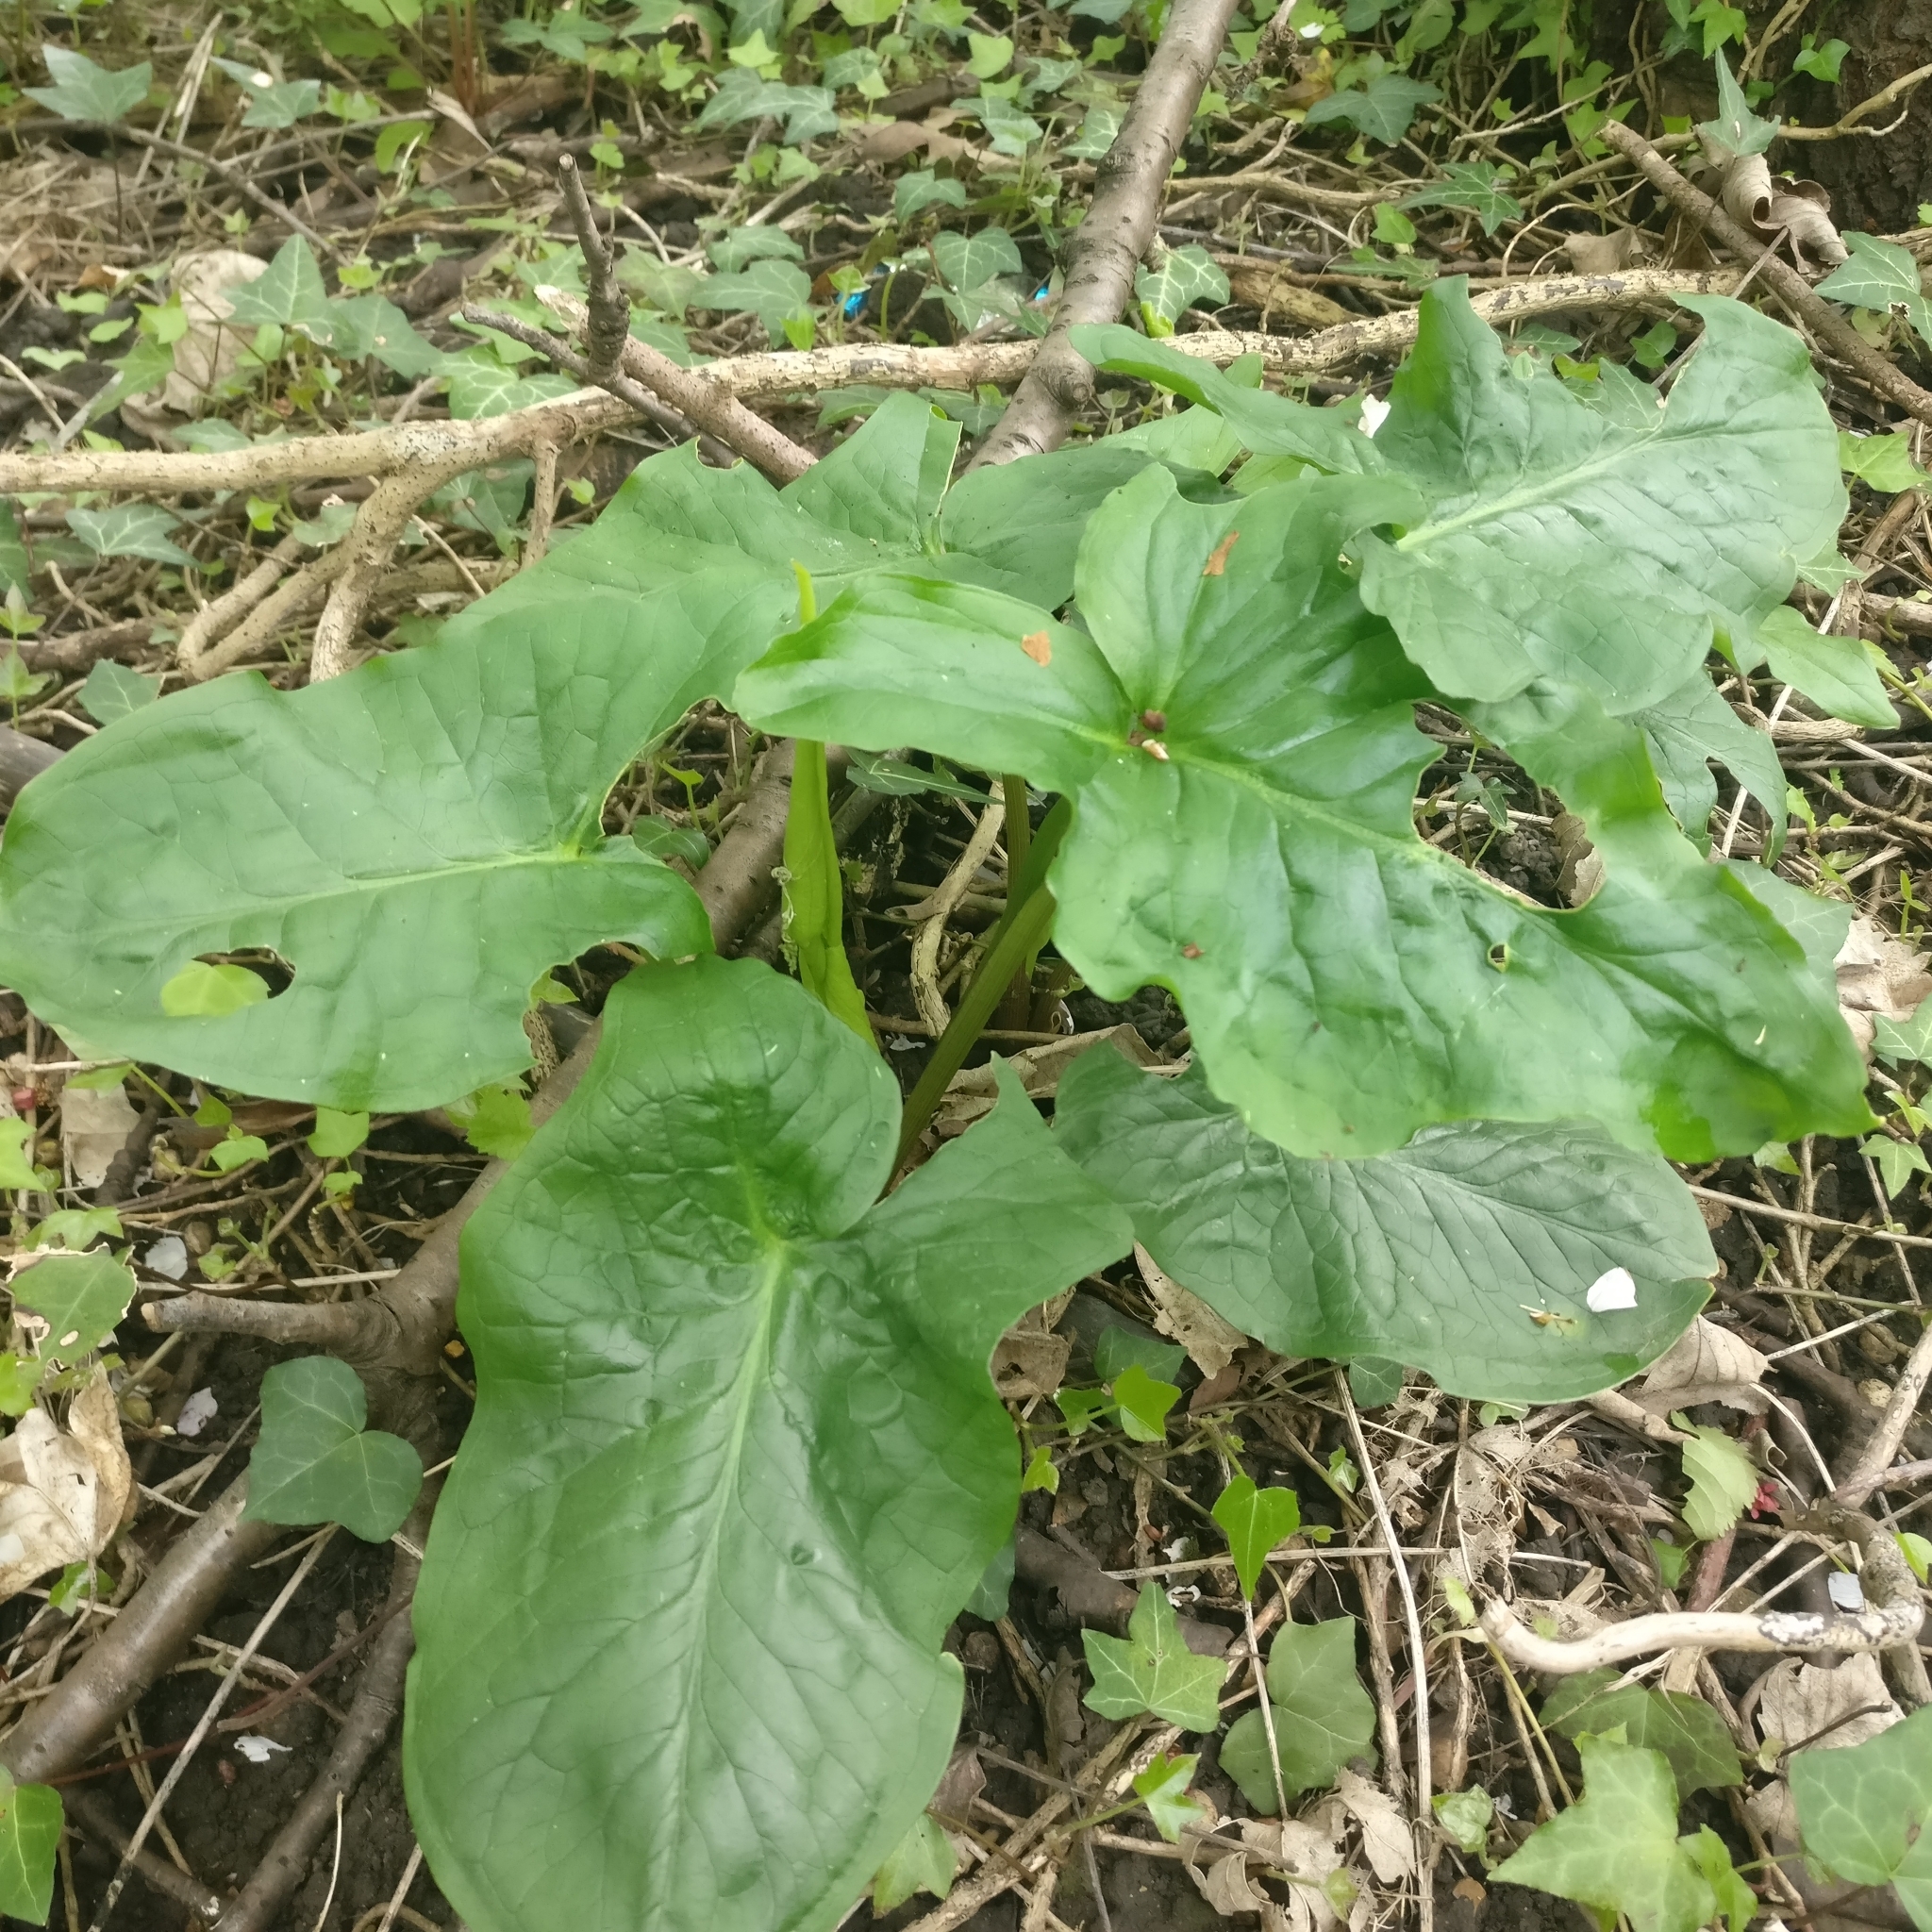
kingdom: Plantae
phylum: Tracheophyta
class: Liliopsida
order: Alismatales
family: Araceae
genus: Arum
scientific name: Arum maculatum
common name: Lords-and-ladies
